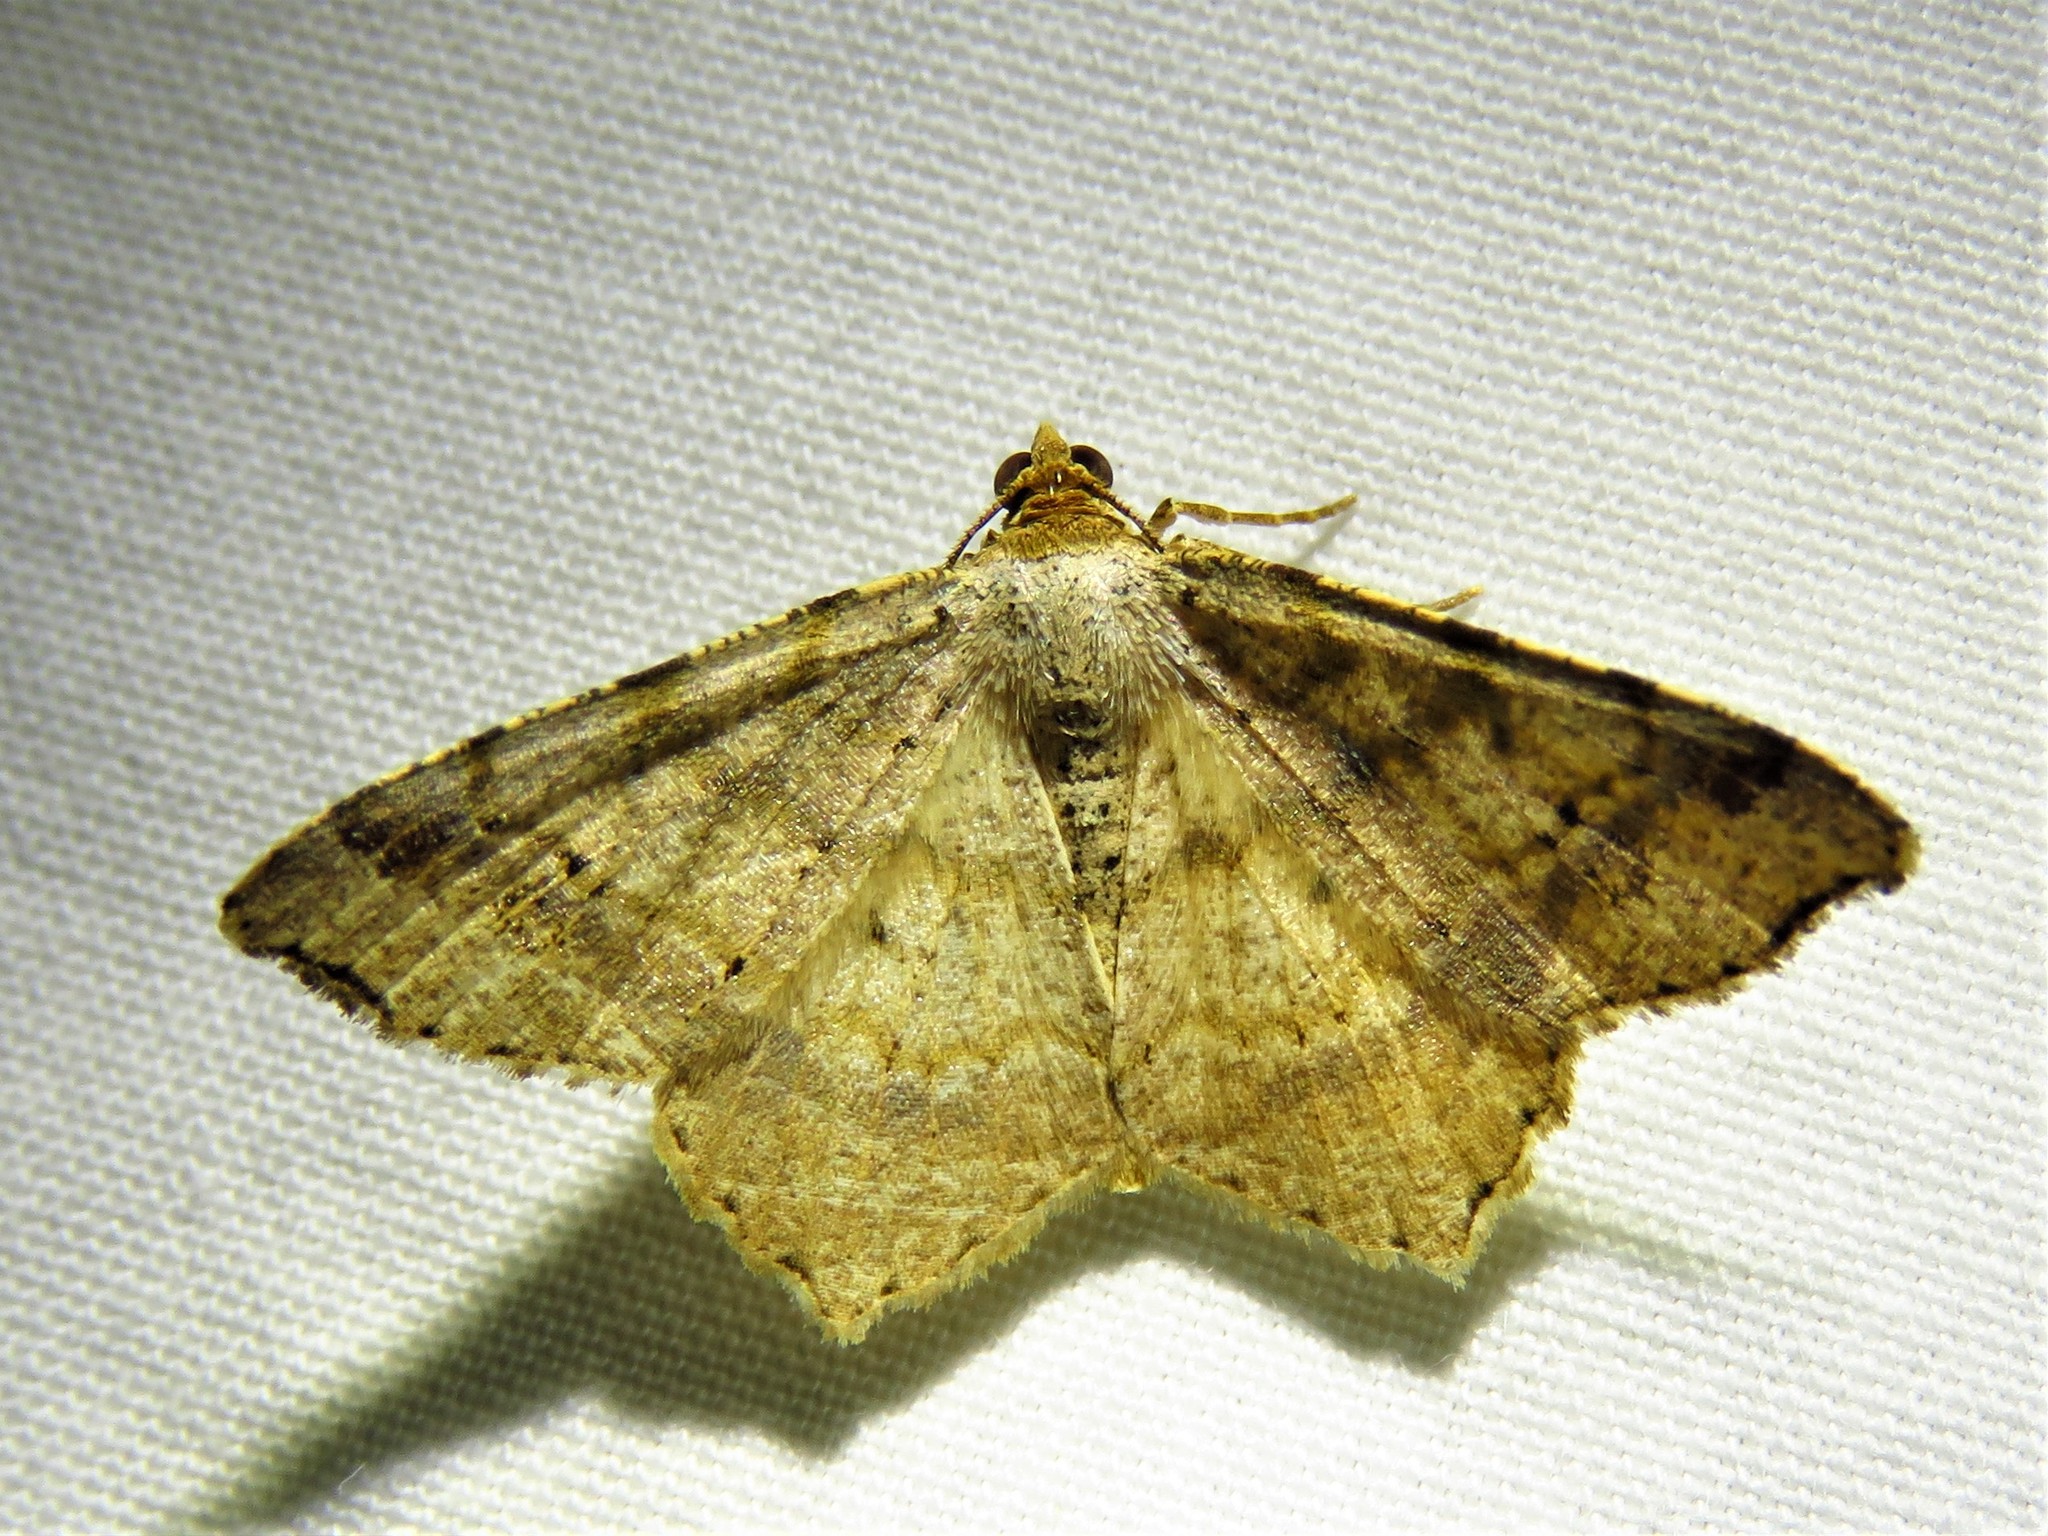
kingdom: Animalia
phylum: Arthropoda
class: Insecta
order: Lepidoptera
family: Geometridae
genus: Macaria
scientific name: Macaria abydata
